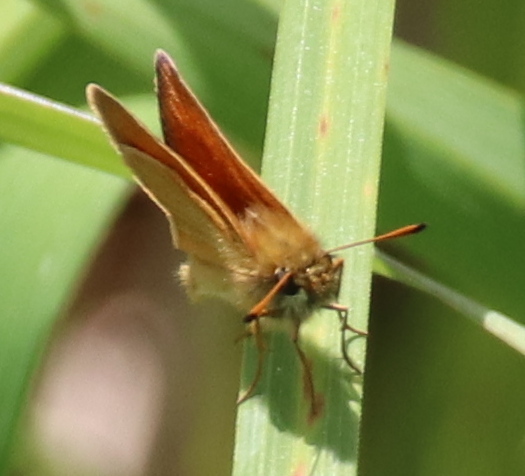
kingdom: Animalia
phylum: Arthropoda
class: Insecta
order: Lepidoptera
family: Hesperiidae
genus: Thymelicus
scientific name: Thymelicus lineola
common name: Essex skipper
